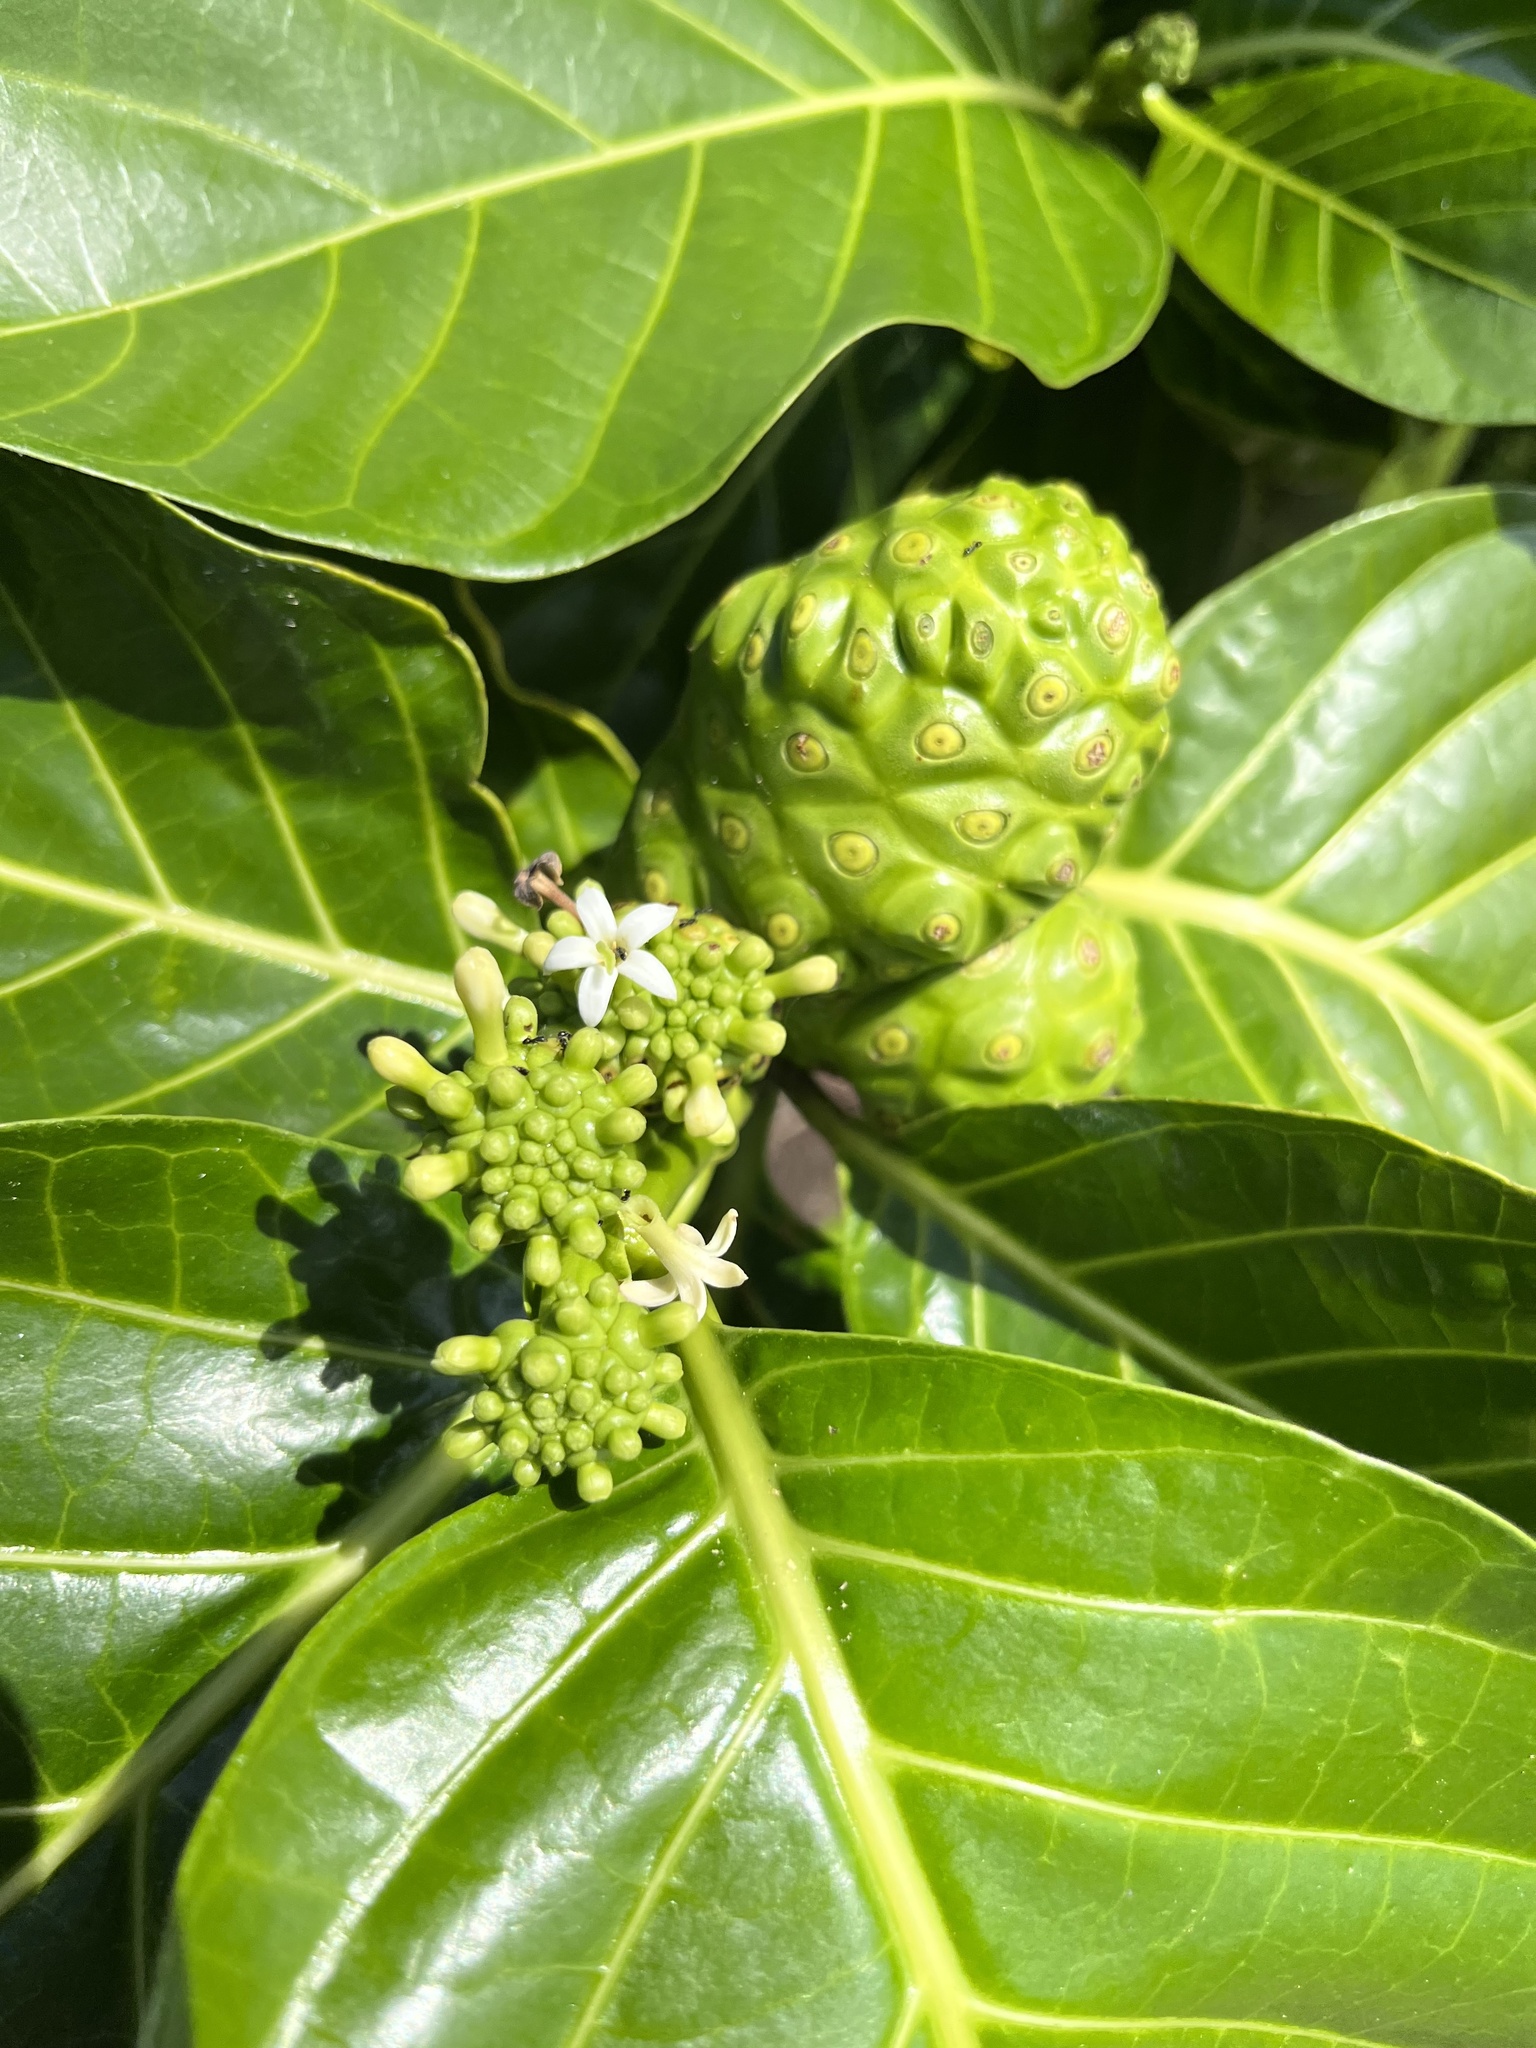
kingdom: Plantae
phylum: Tracheophyta
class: Magnoliopsida
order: Gentianales
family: Rubiaceae
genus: Morinda
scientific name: Morinda citrifolia
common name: Indian-mulberry
